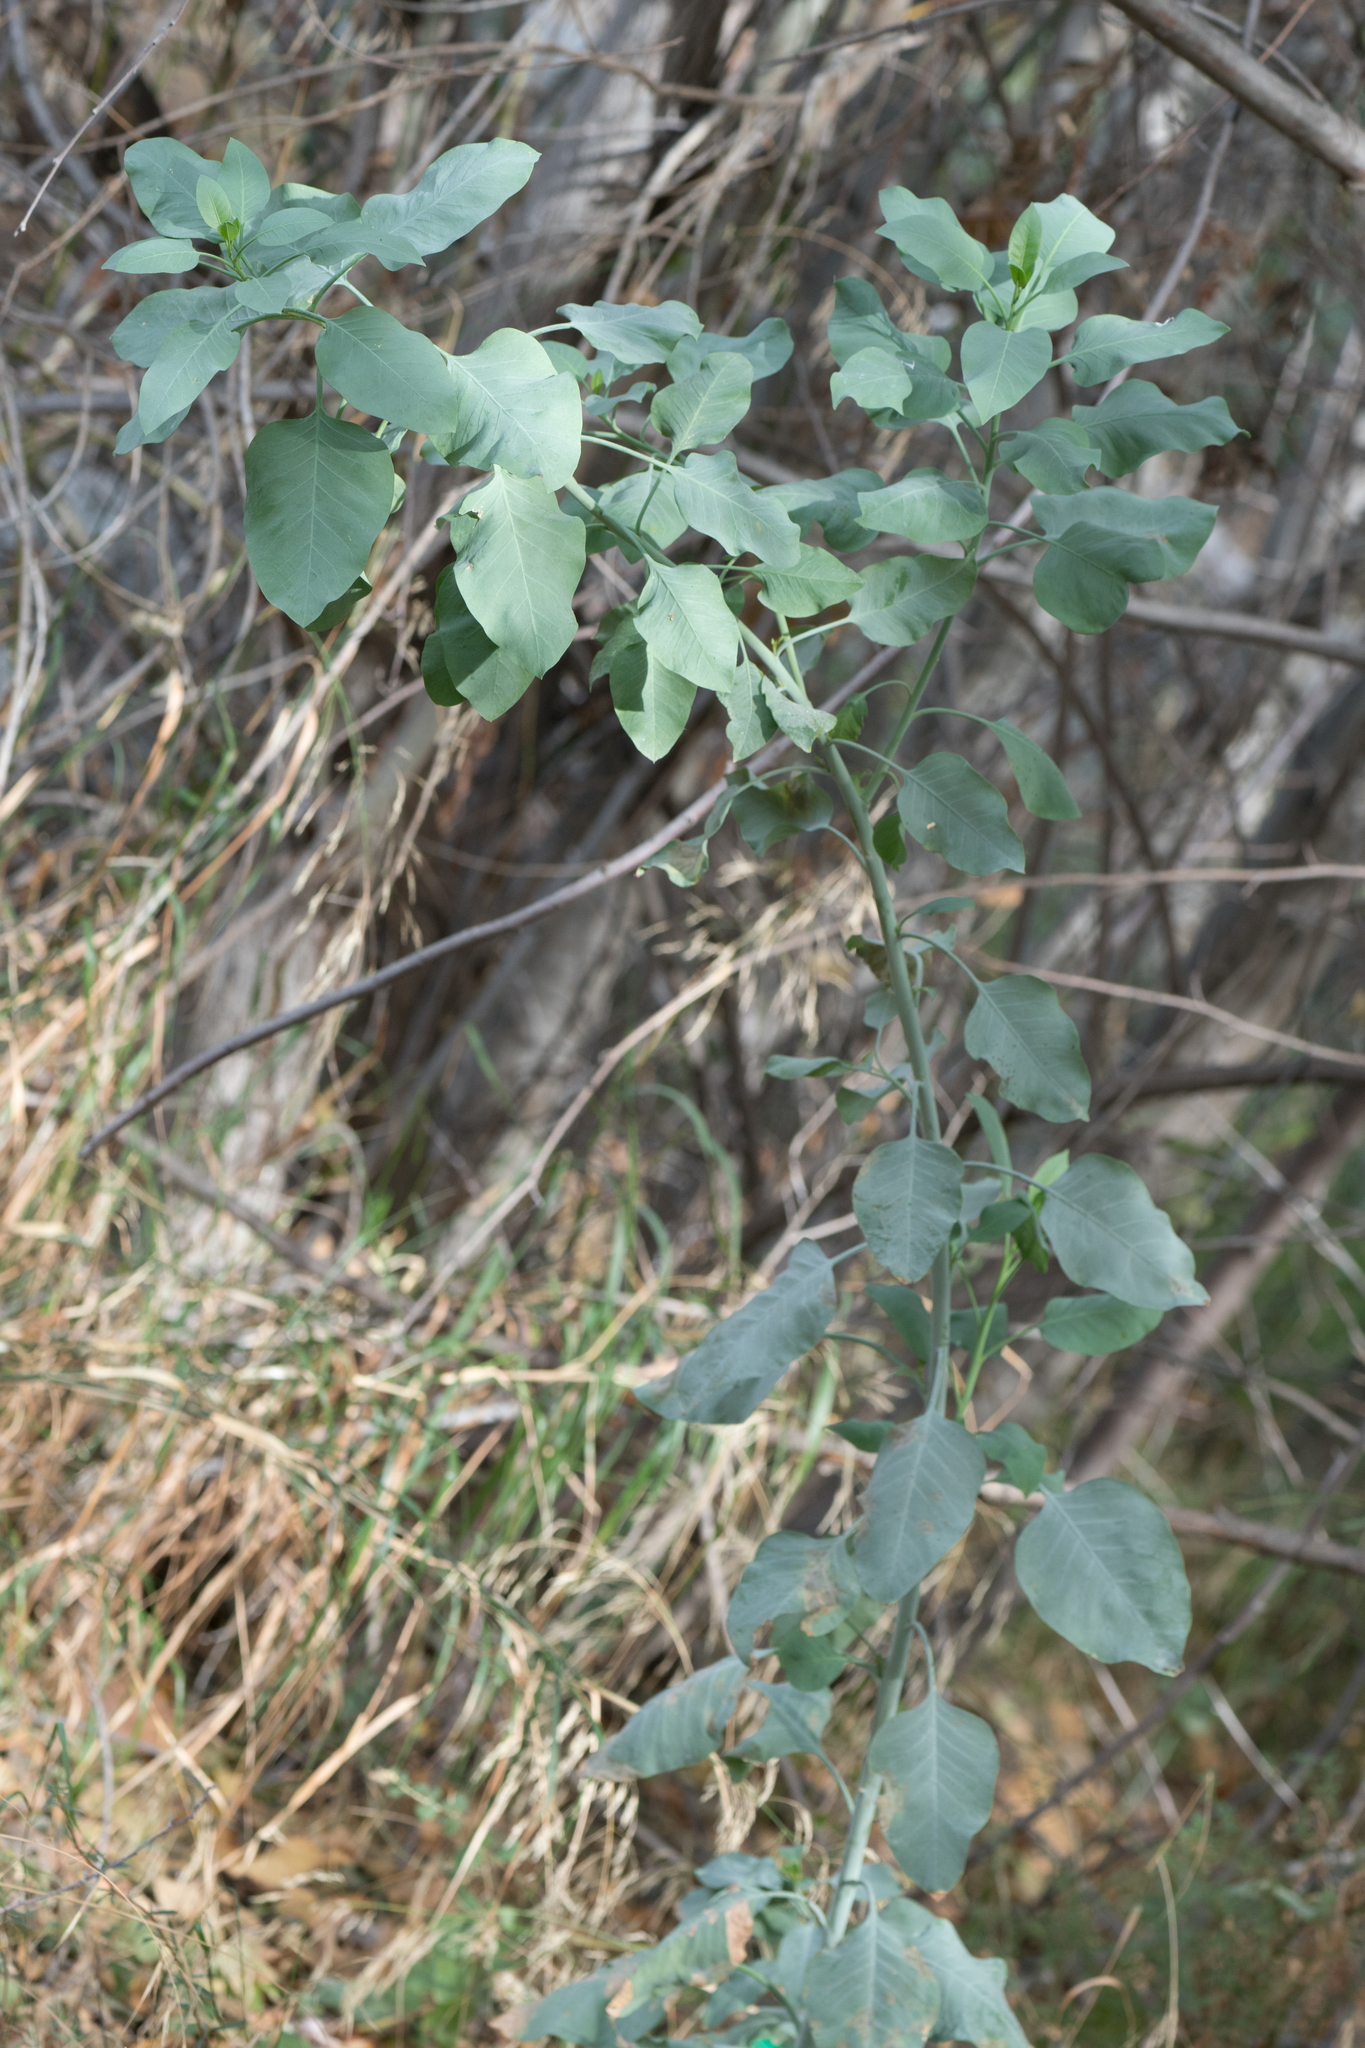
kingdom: Plantae
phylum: Tracheophyta
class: Magnoliopsida
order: Solanales
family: Solanaceae
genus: Nicotiana
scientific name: Nicotiana glauca
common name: Tree tobacco
